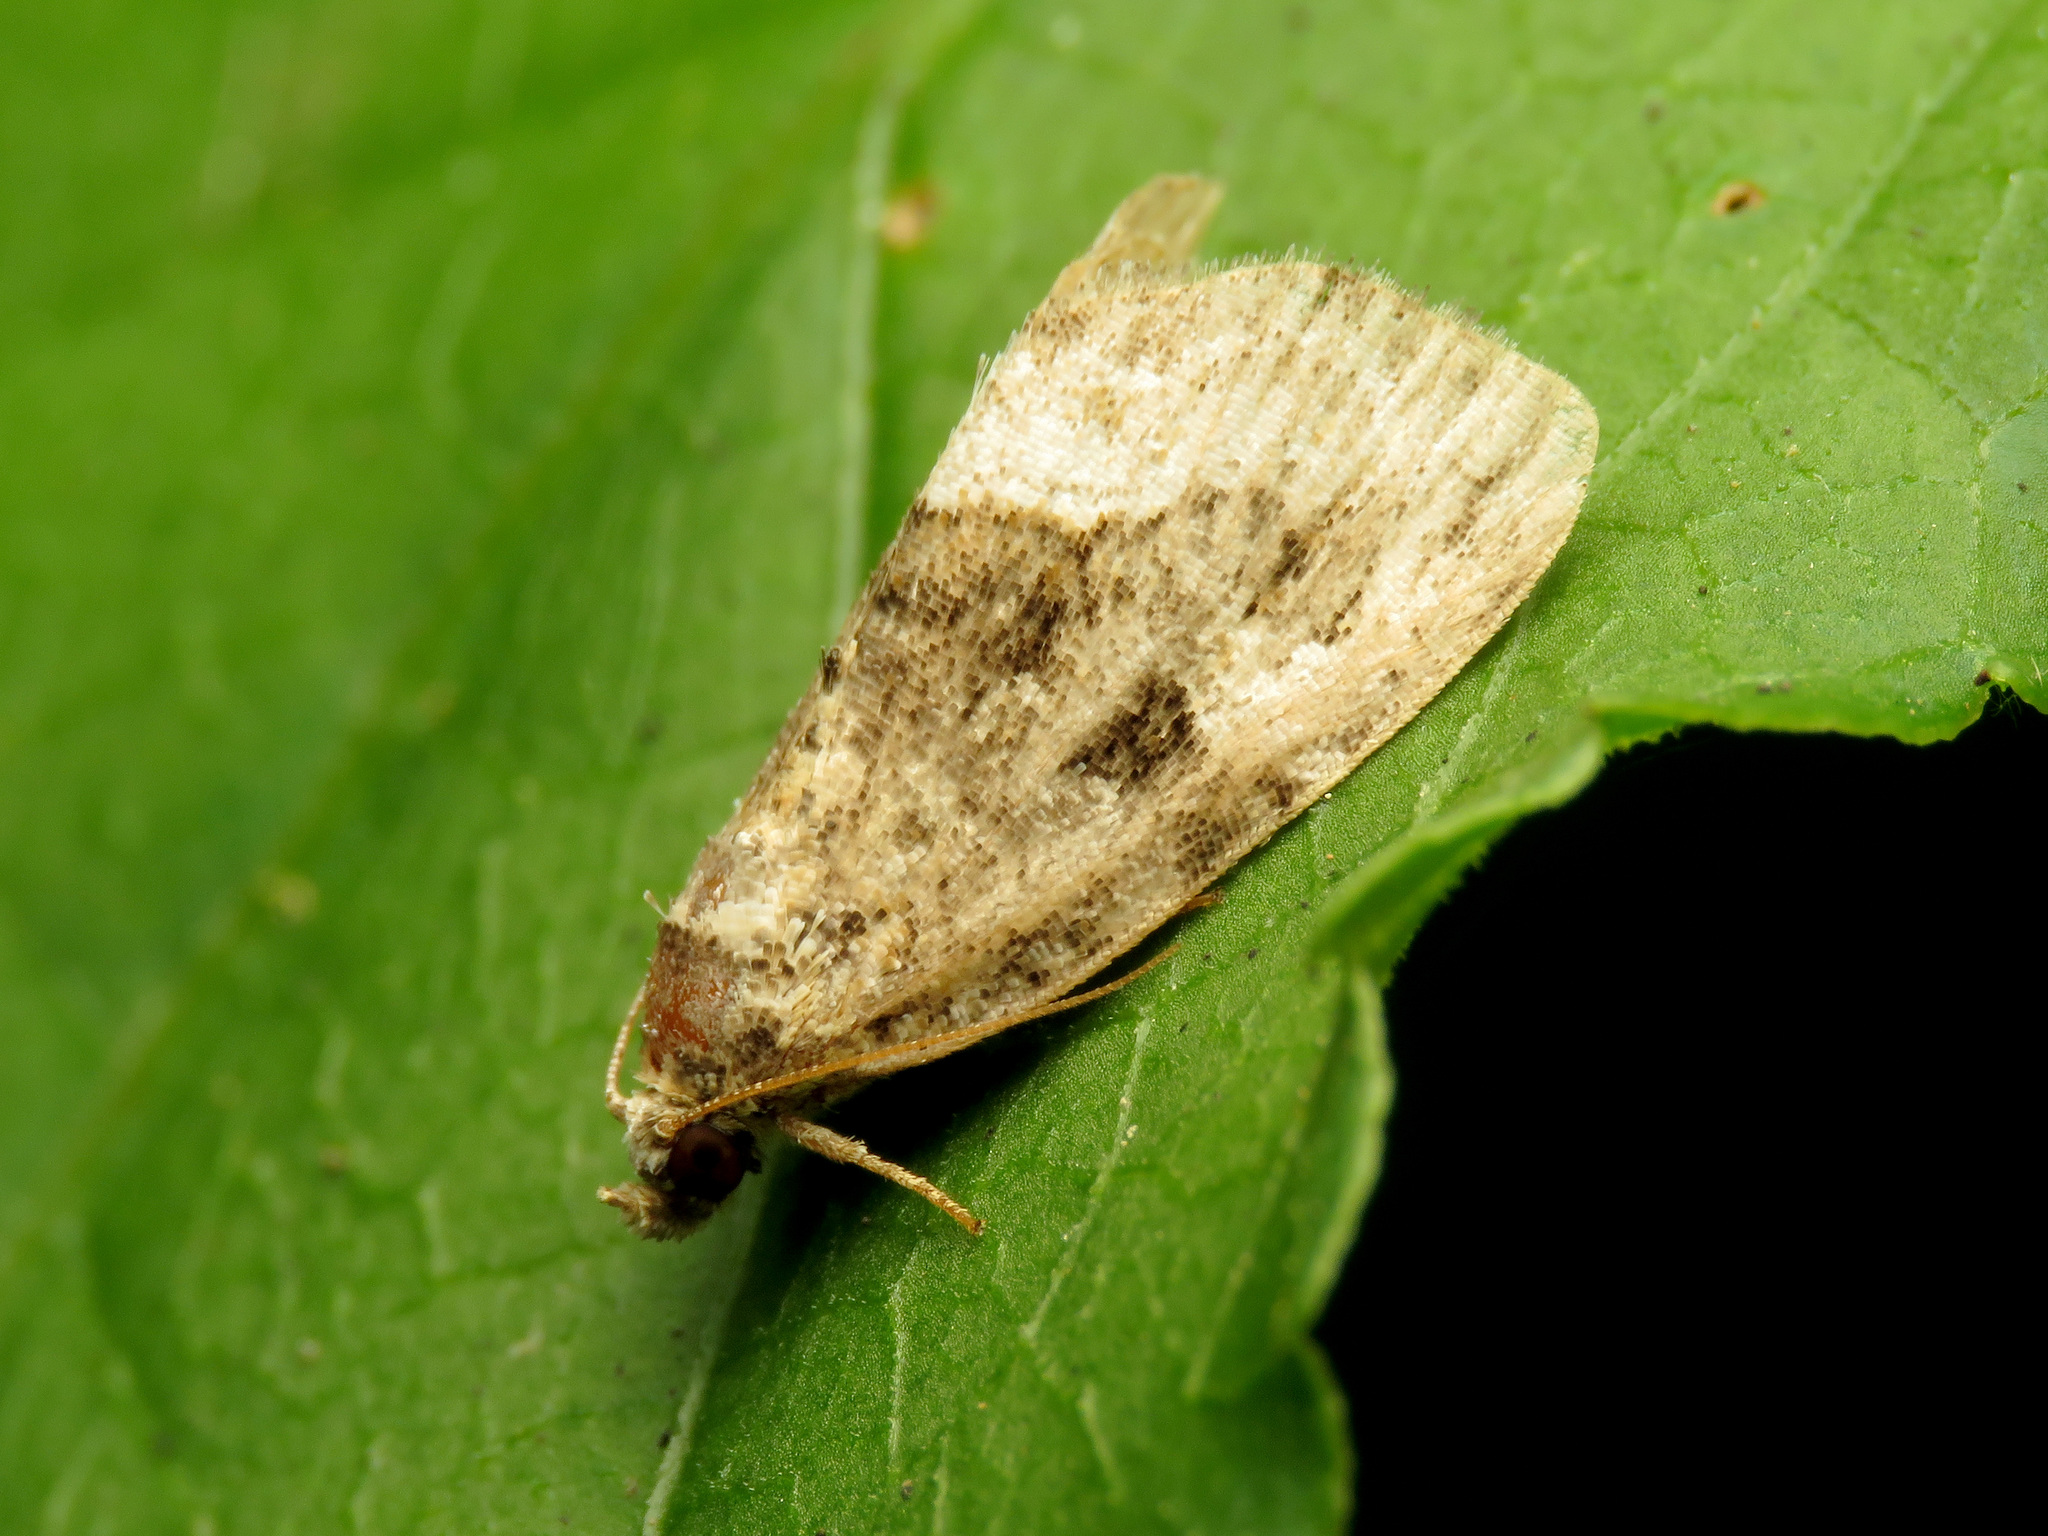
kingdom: Animalia
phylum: Arthropoda
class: Insecta
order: Lepidoptera
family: Noctuidae
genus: Protodeltote
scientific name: Protodeltote muscosula
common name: Large mossy glyph
